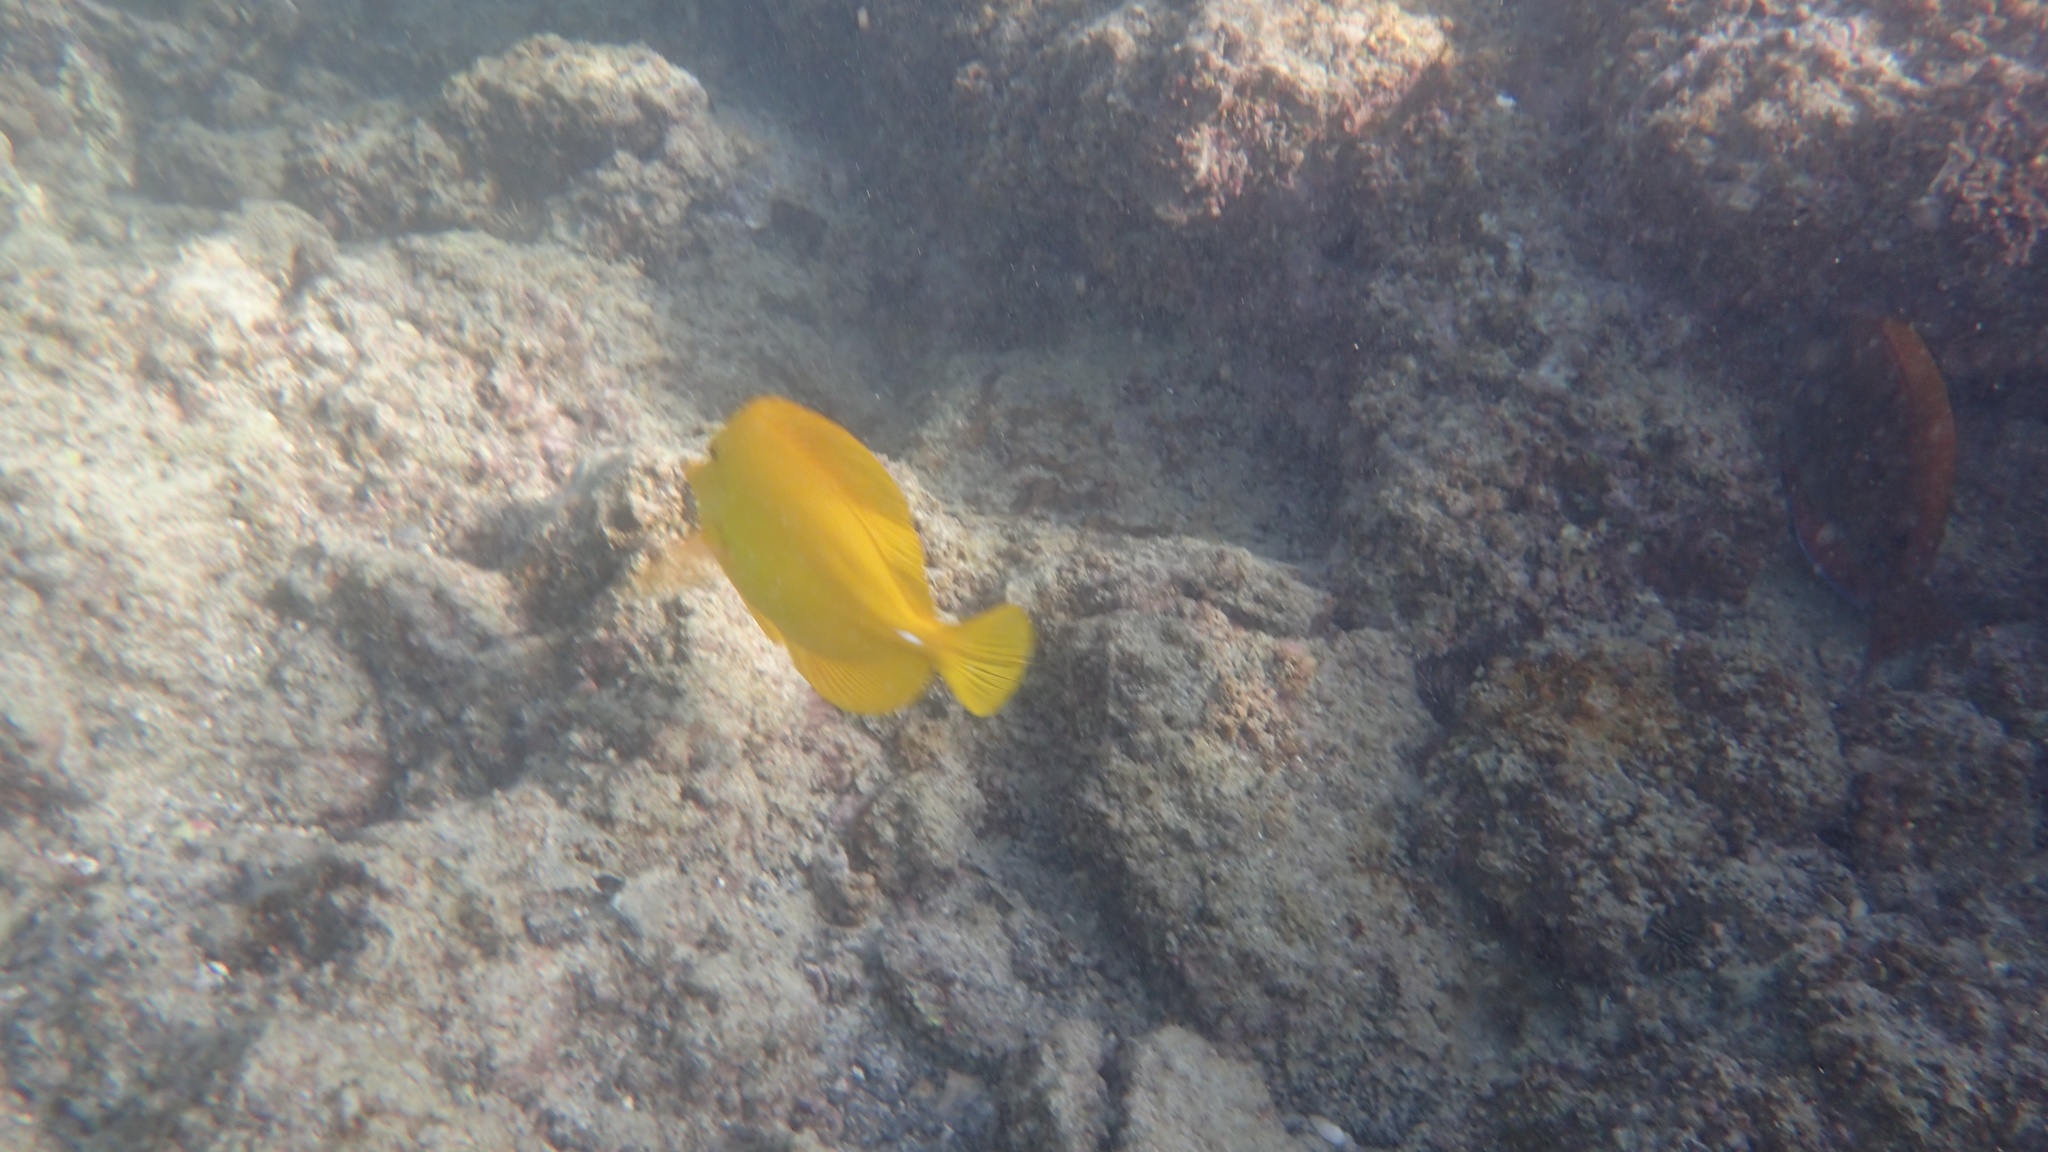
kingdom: Animalia
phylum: Chordata
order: Perciformes
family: Acanthuridae
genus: Zebrasoma
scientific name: Zebrasoma flavescens
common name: Yellow tang
